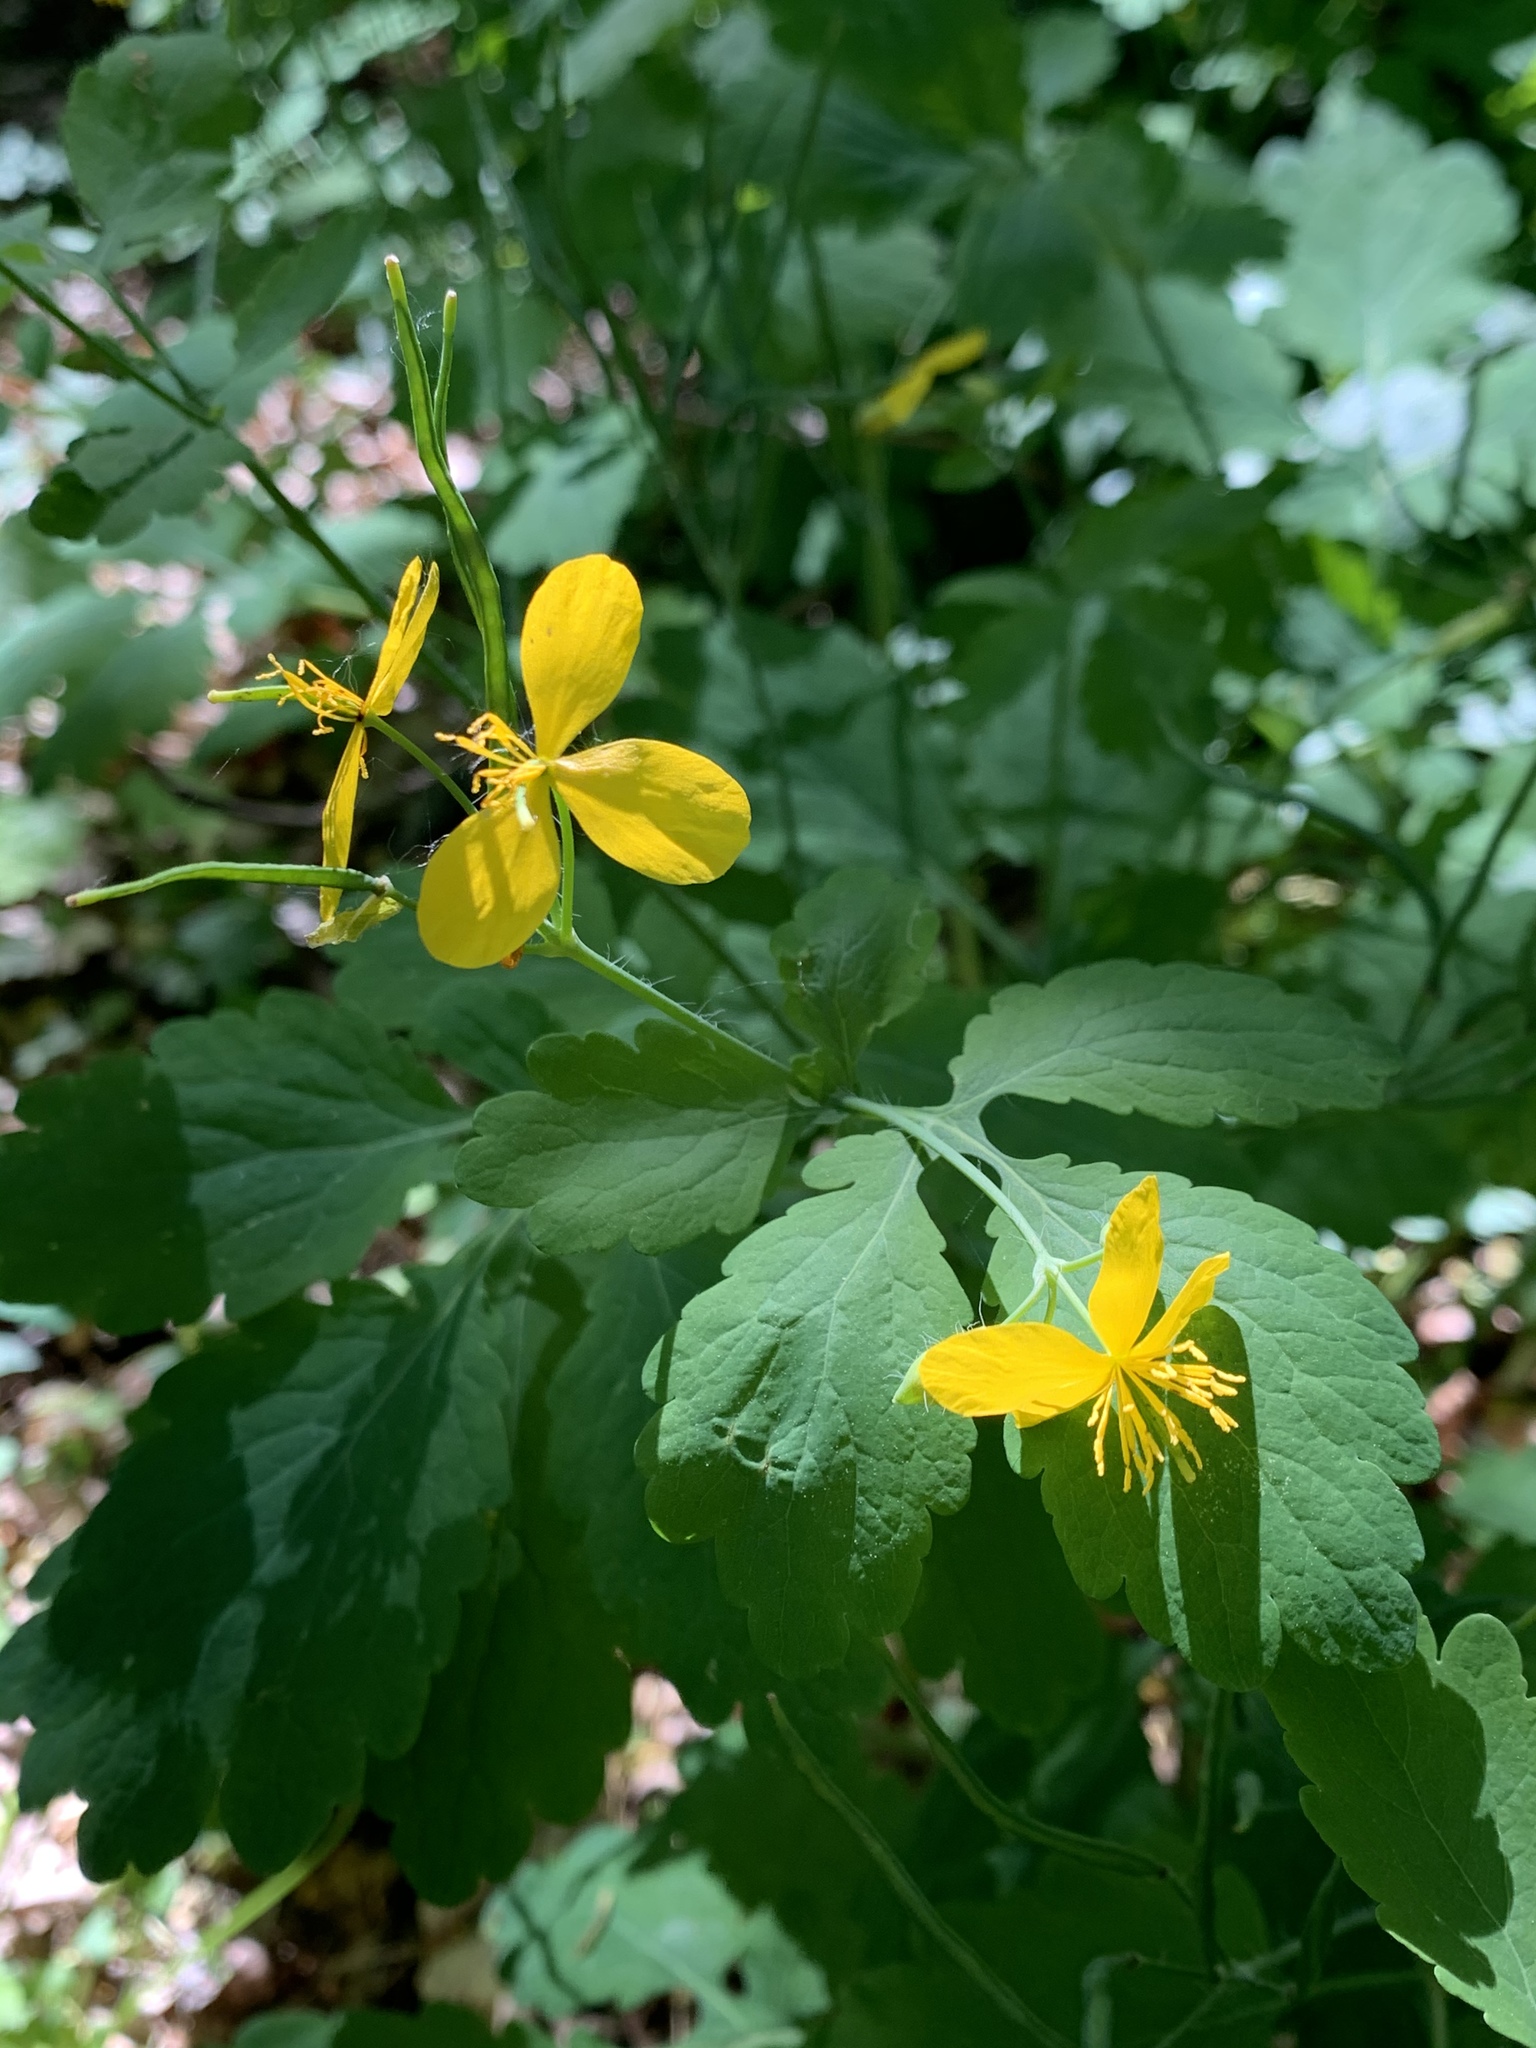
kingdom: Plantae
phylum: Tracheophyta
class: Magnoliopsida
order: Ranunculales
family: Papaveraceae
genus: Chelidonium
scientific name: Chelidonium majus
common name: Greater celandine
